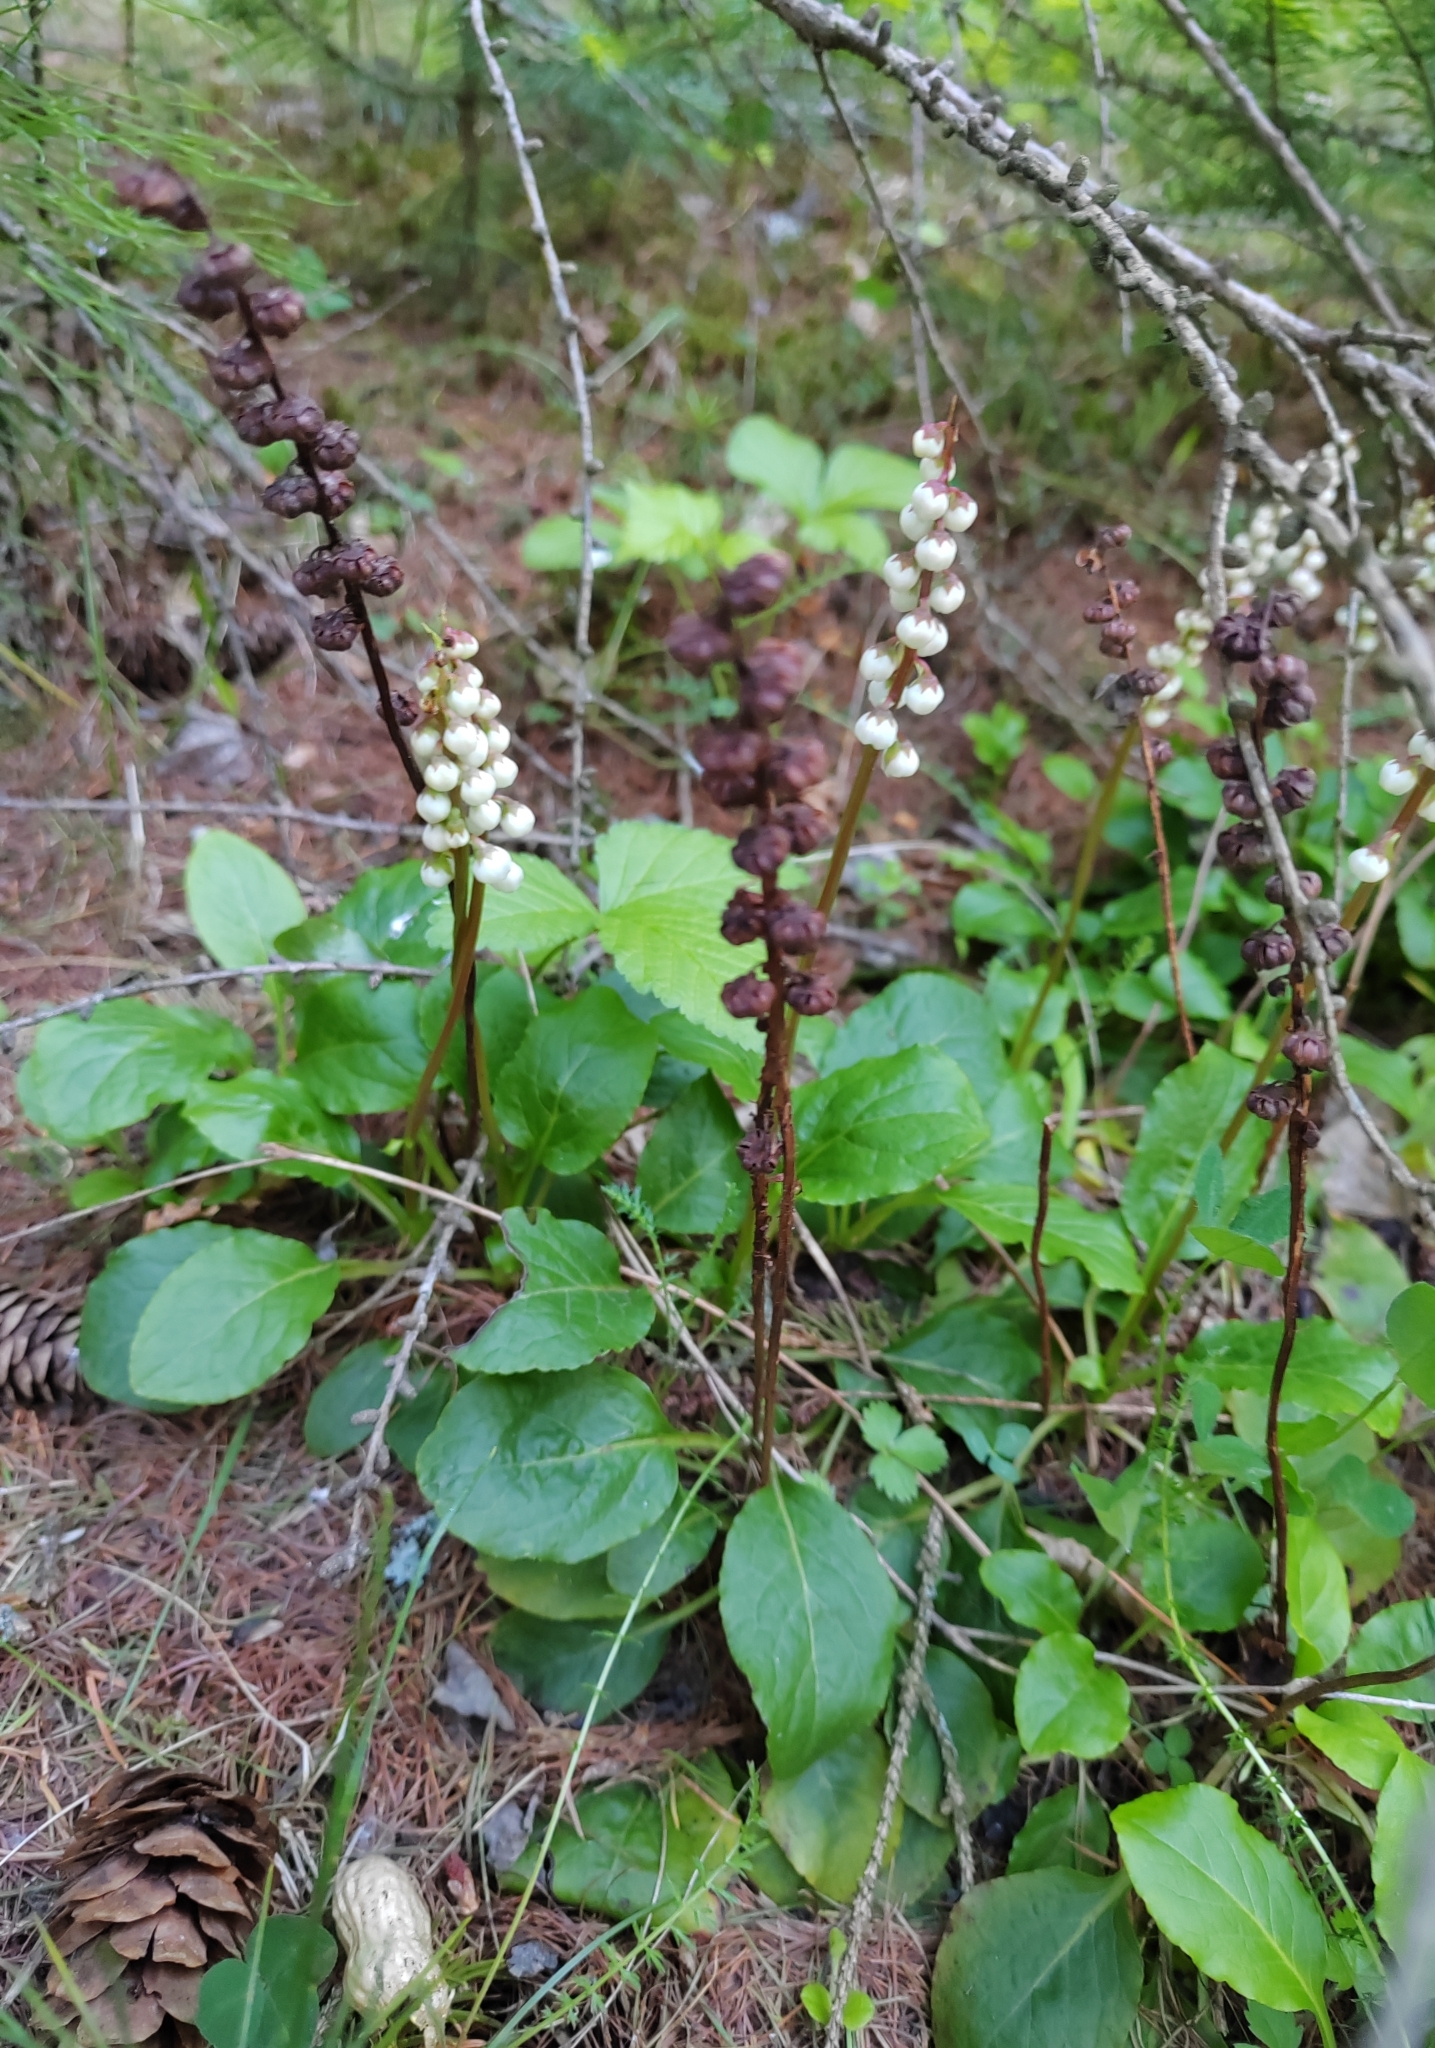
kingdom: Plantae
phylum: Tracheophyta
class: Magnoliopsida
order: Ericales
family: Ericaceae
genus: Pyrola
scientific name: Pyrola minor
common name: Common wintergreen
